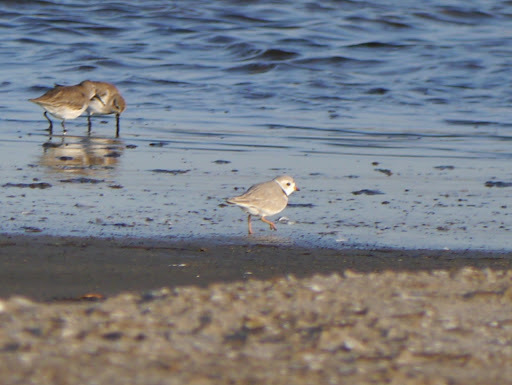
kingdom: Animalia
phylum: Chordata
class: Aves
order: Charadriiformes
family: Charadriidae
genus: Charadrius
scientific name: Charadrius melodus
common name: Piping plover
